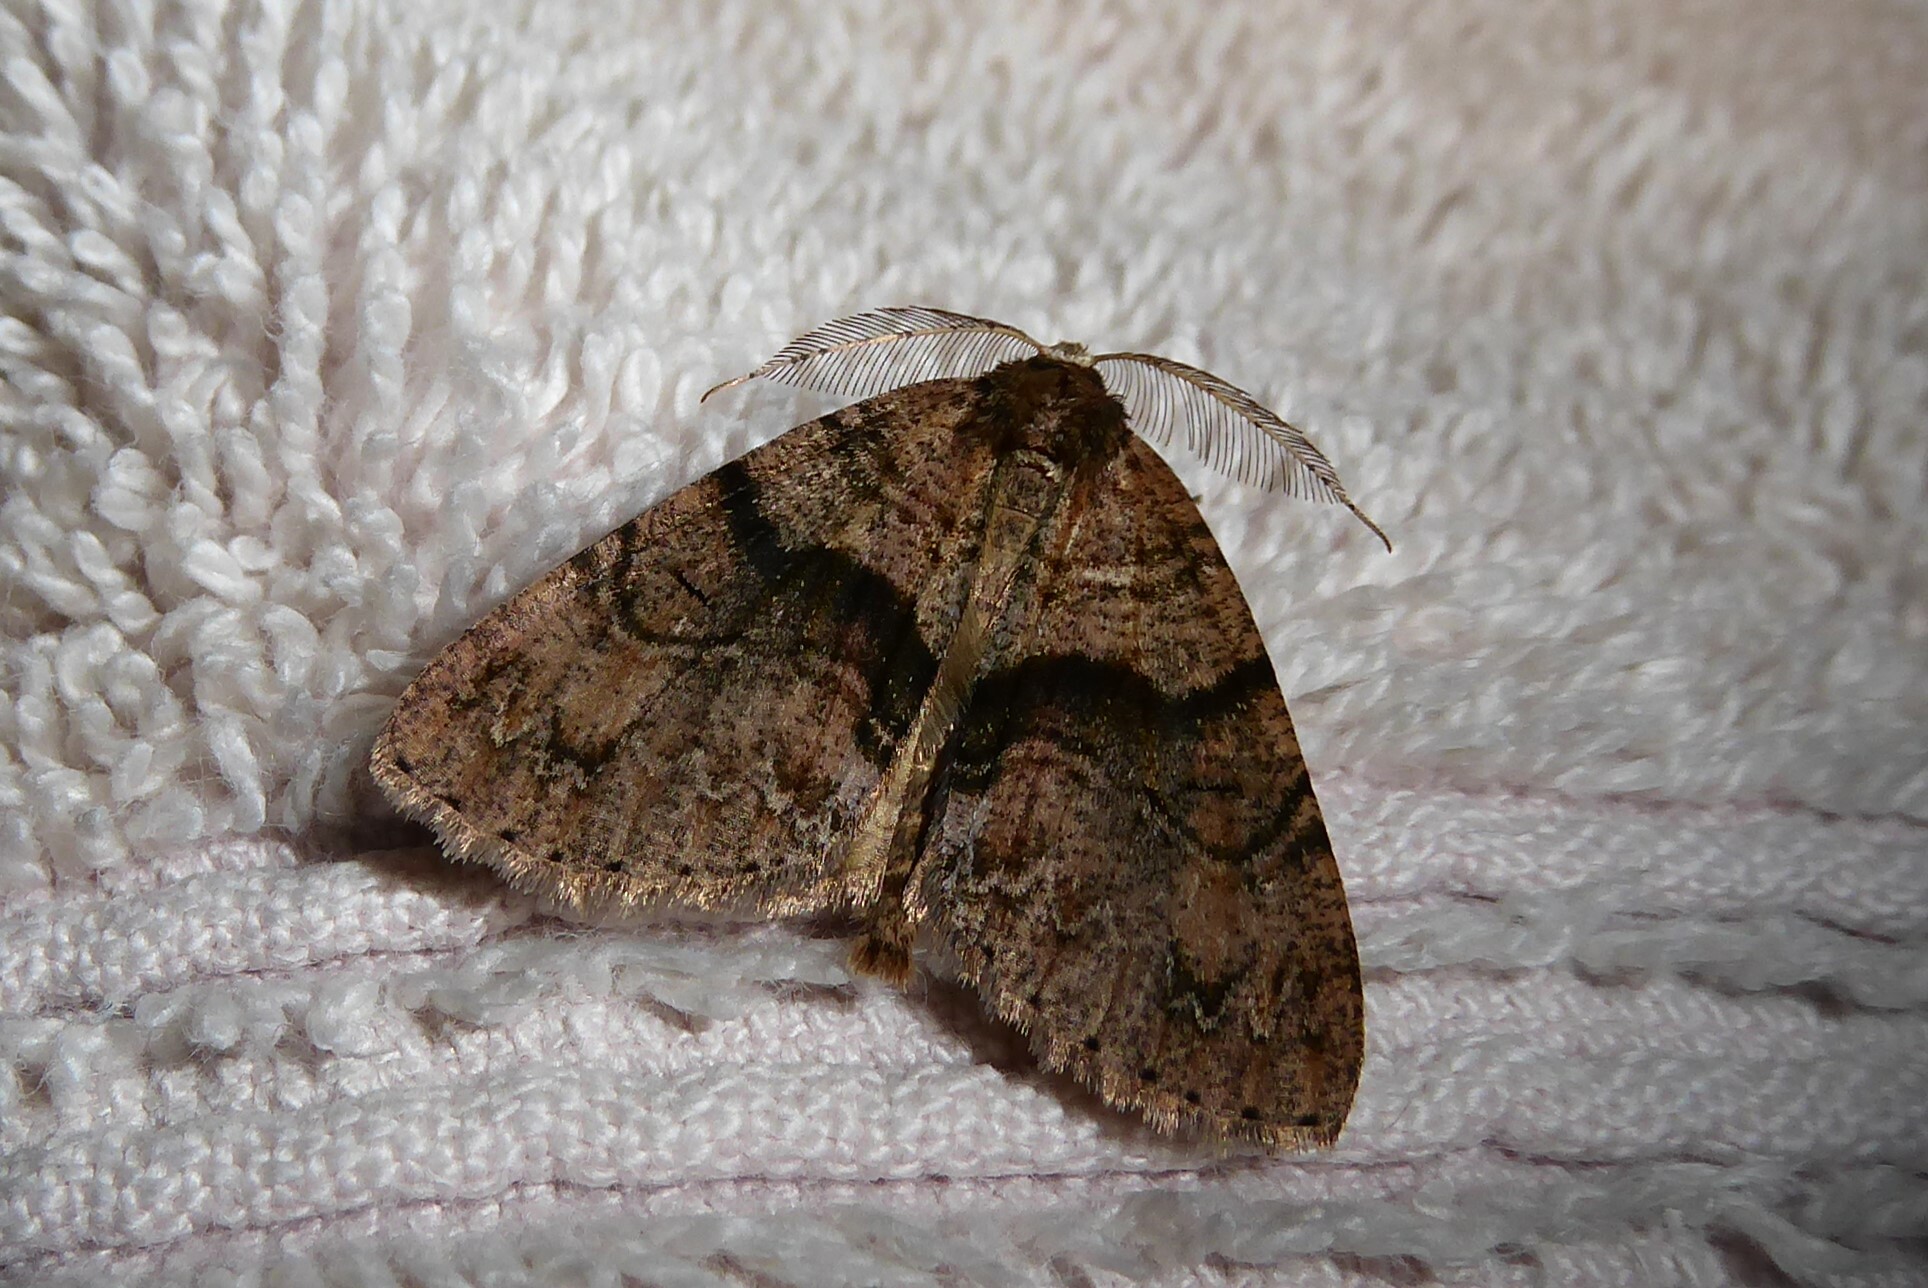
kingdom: Animalia
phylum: Arthropoda
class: Insecta
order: Lepidoptera
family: Geometridae
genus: Pseudocoremia
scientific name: Pseudocoremia suavis
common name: Common forest looper
